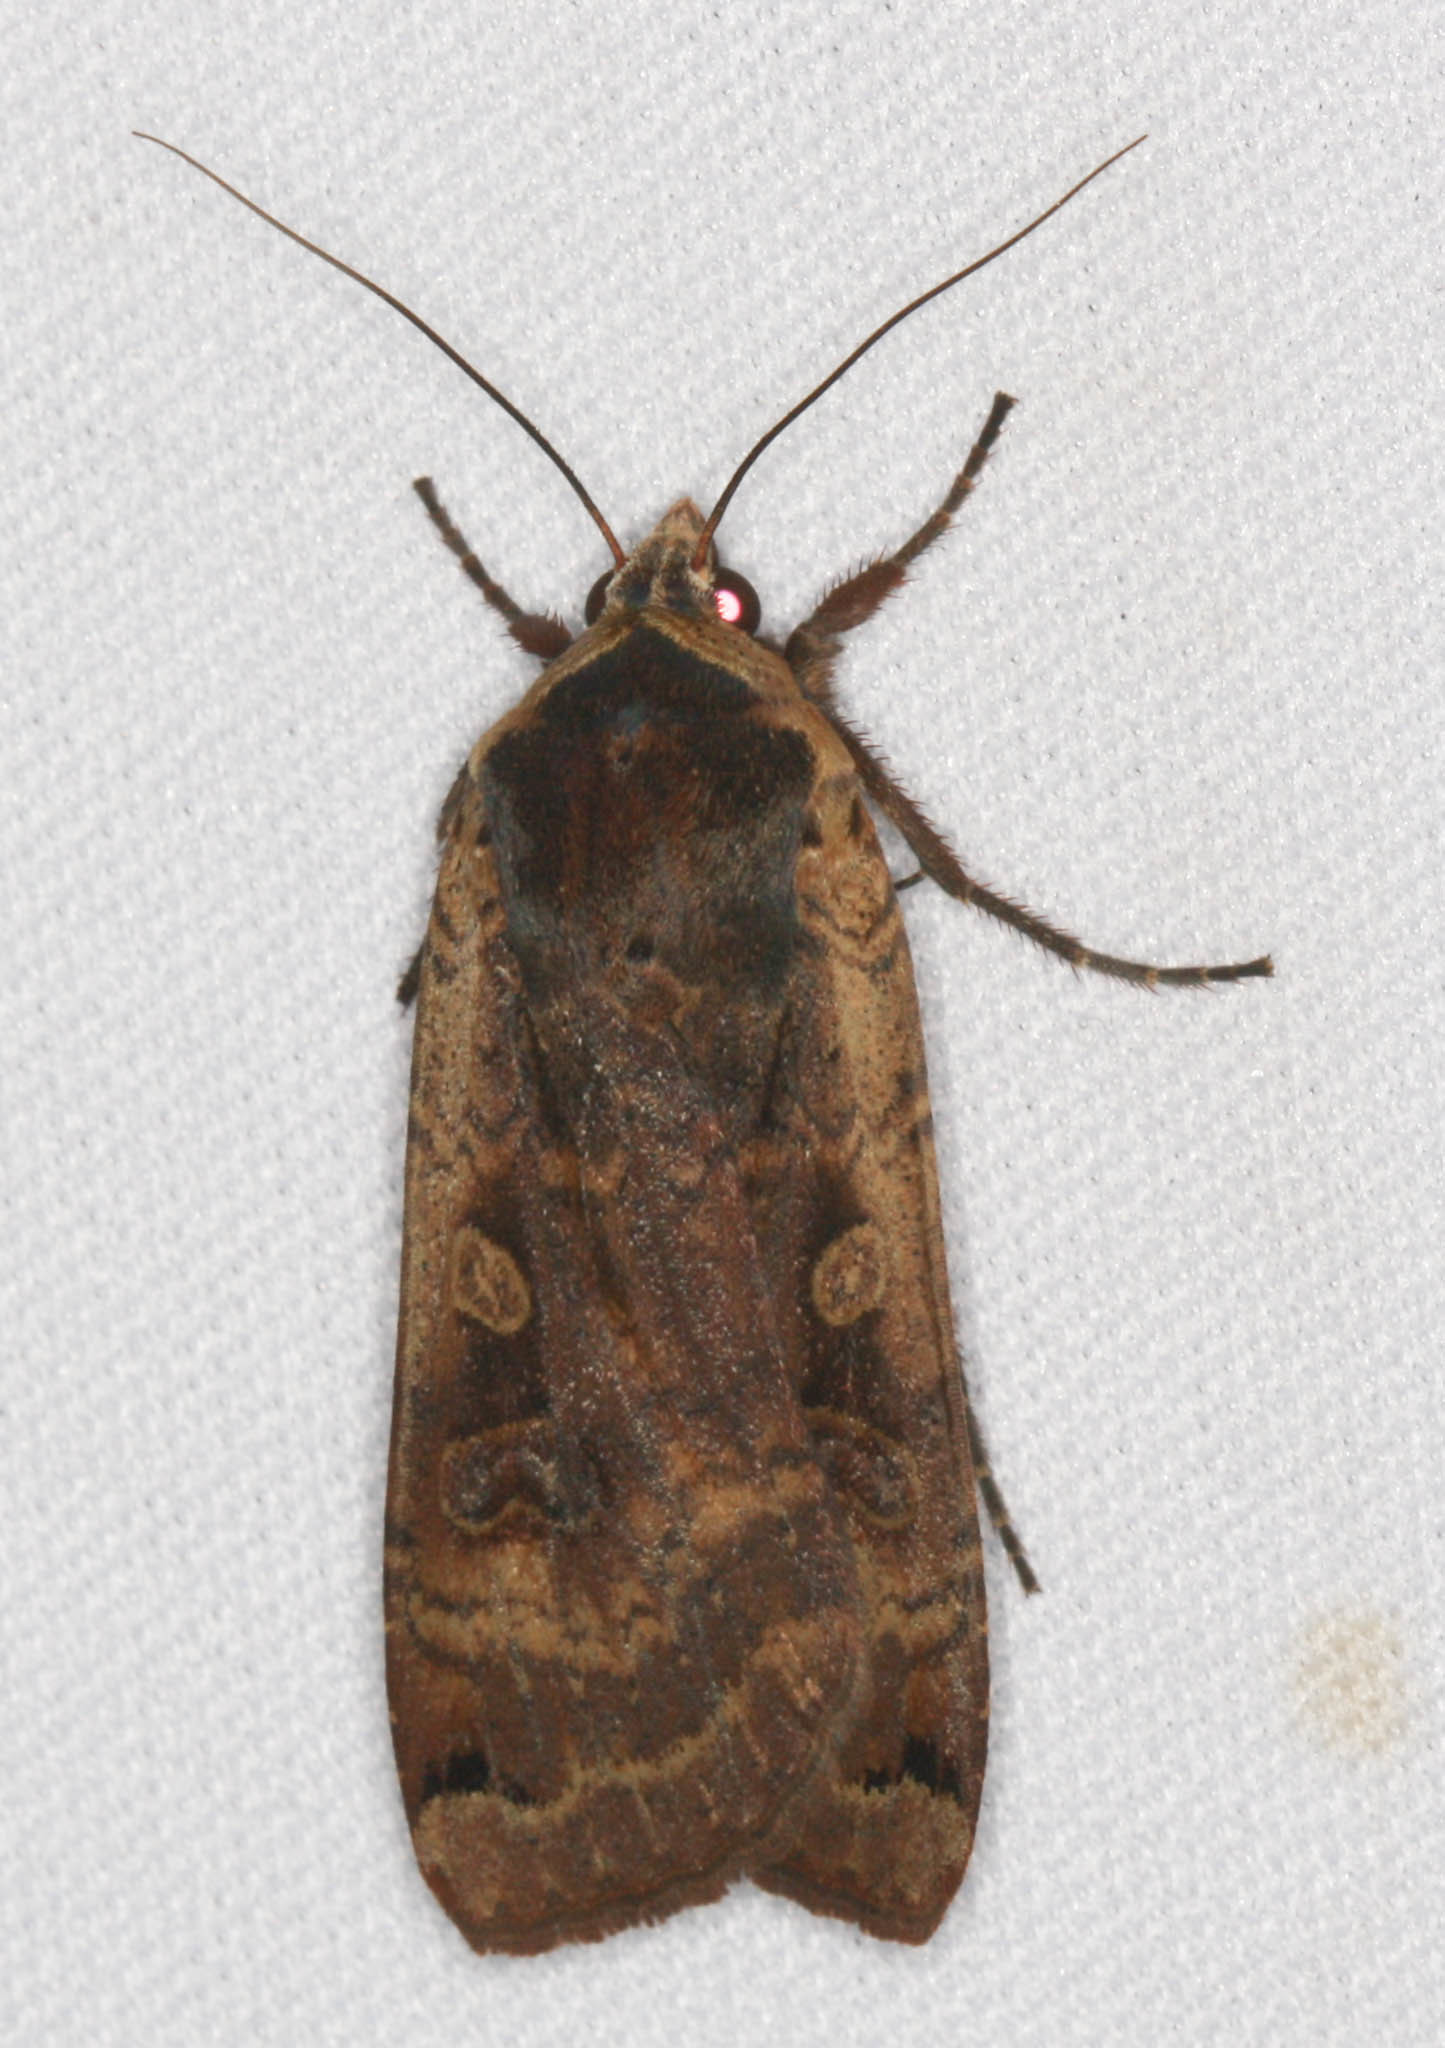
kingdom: Animalia
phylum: Arthropoda
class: Insecta
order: Lepidoptera
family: Noctuidae
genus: Noctua
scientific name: Noctua pronuba
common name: Large yellow underwing
